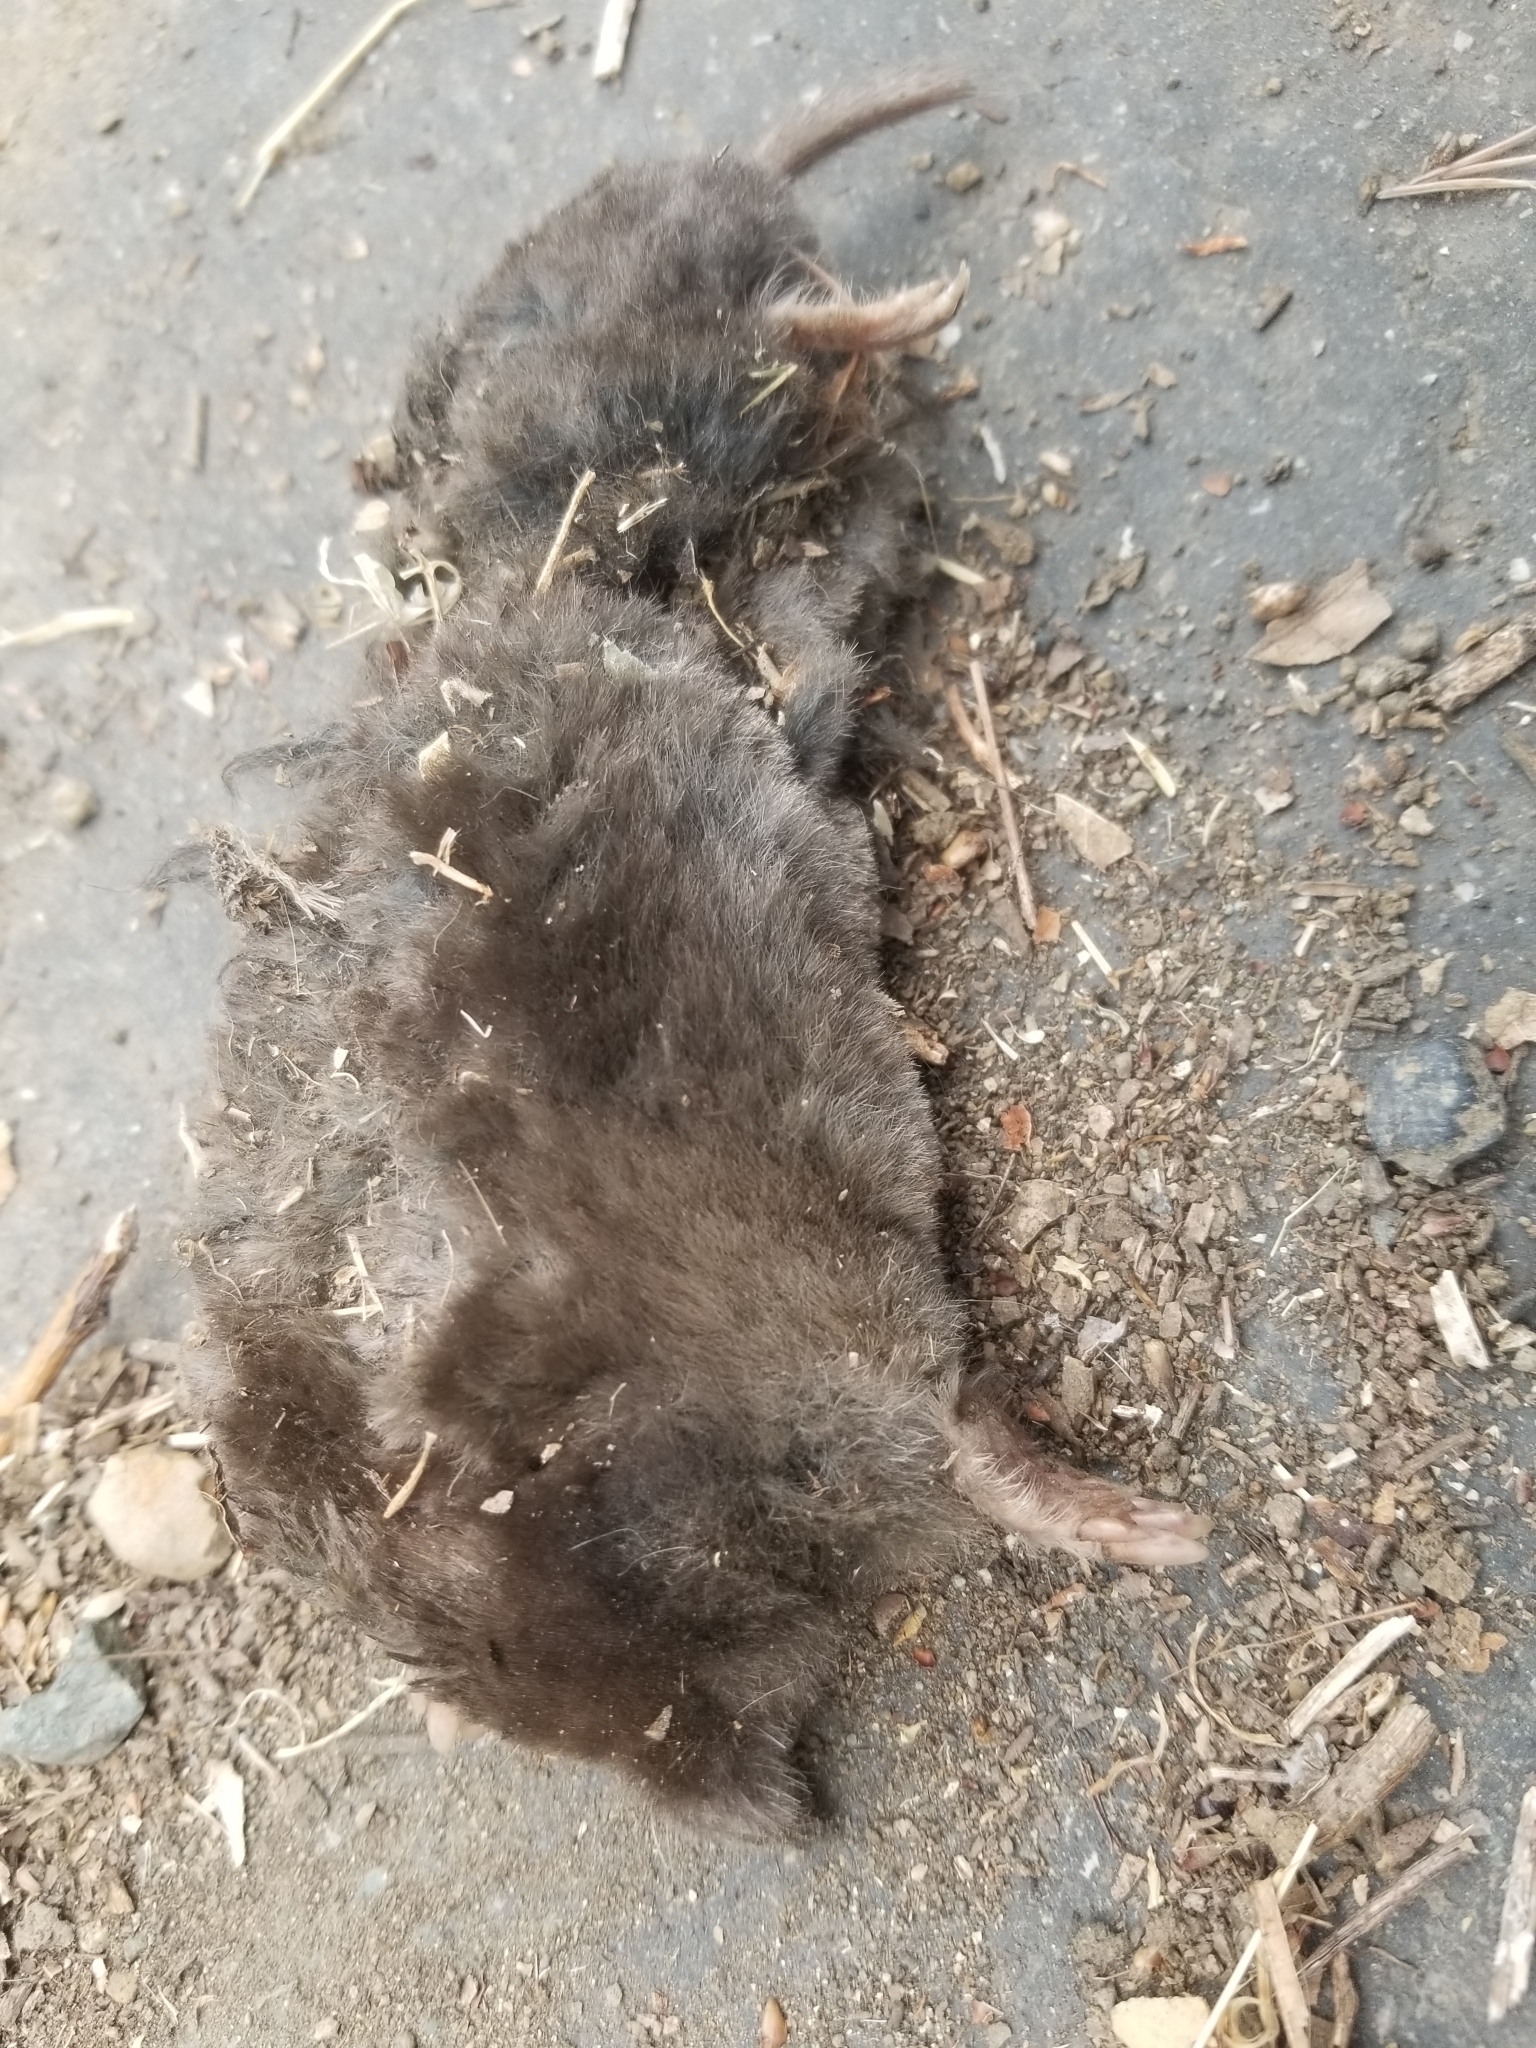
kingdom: Animalia
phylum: Chordata
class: Mammalia
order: Soricomorpha
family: Talpidae
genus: Scapanus
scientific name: Scapanus latimanus
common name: Broad-footed mole
